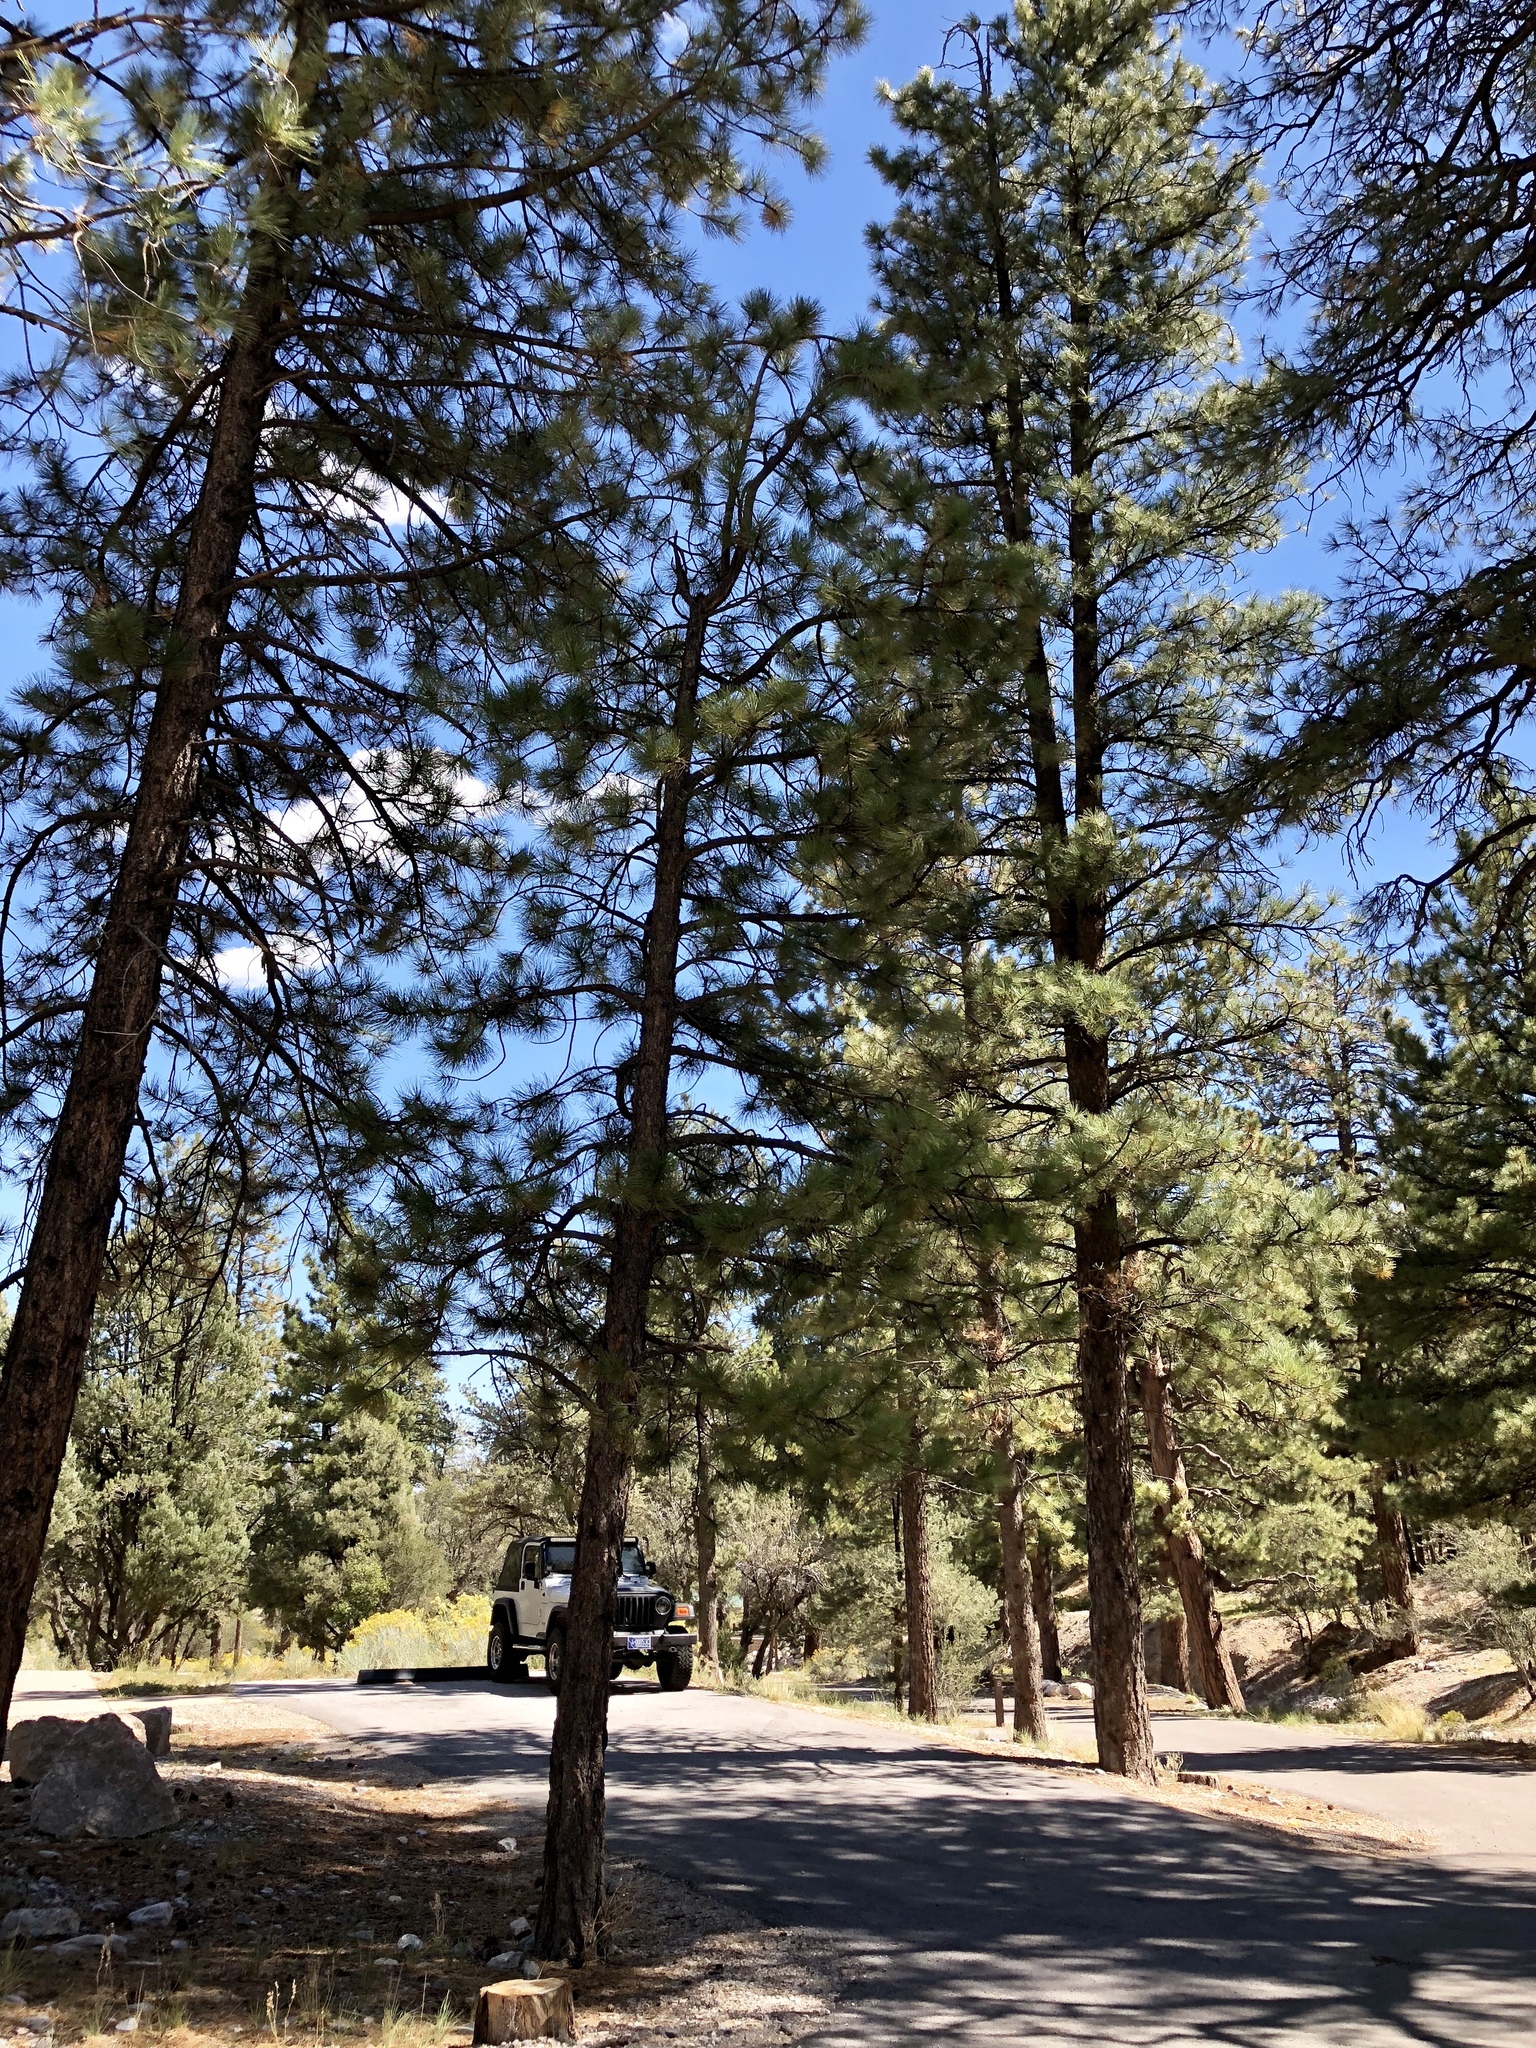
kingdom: Plantae
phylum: Tracheophyta
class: Pinopsida
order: Pinales
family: Pinaceae
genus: Pinus
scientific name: Pinus ponderosa
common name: Western yellow-pine
